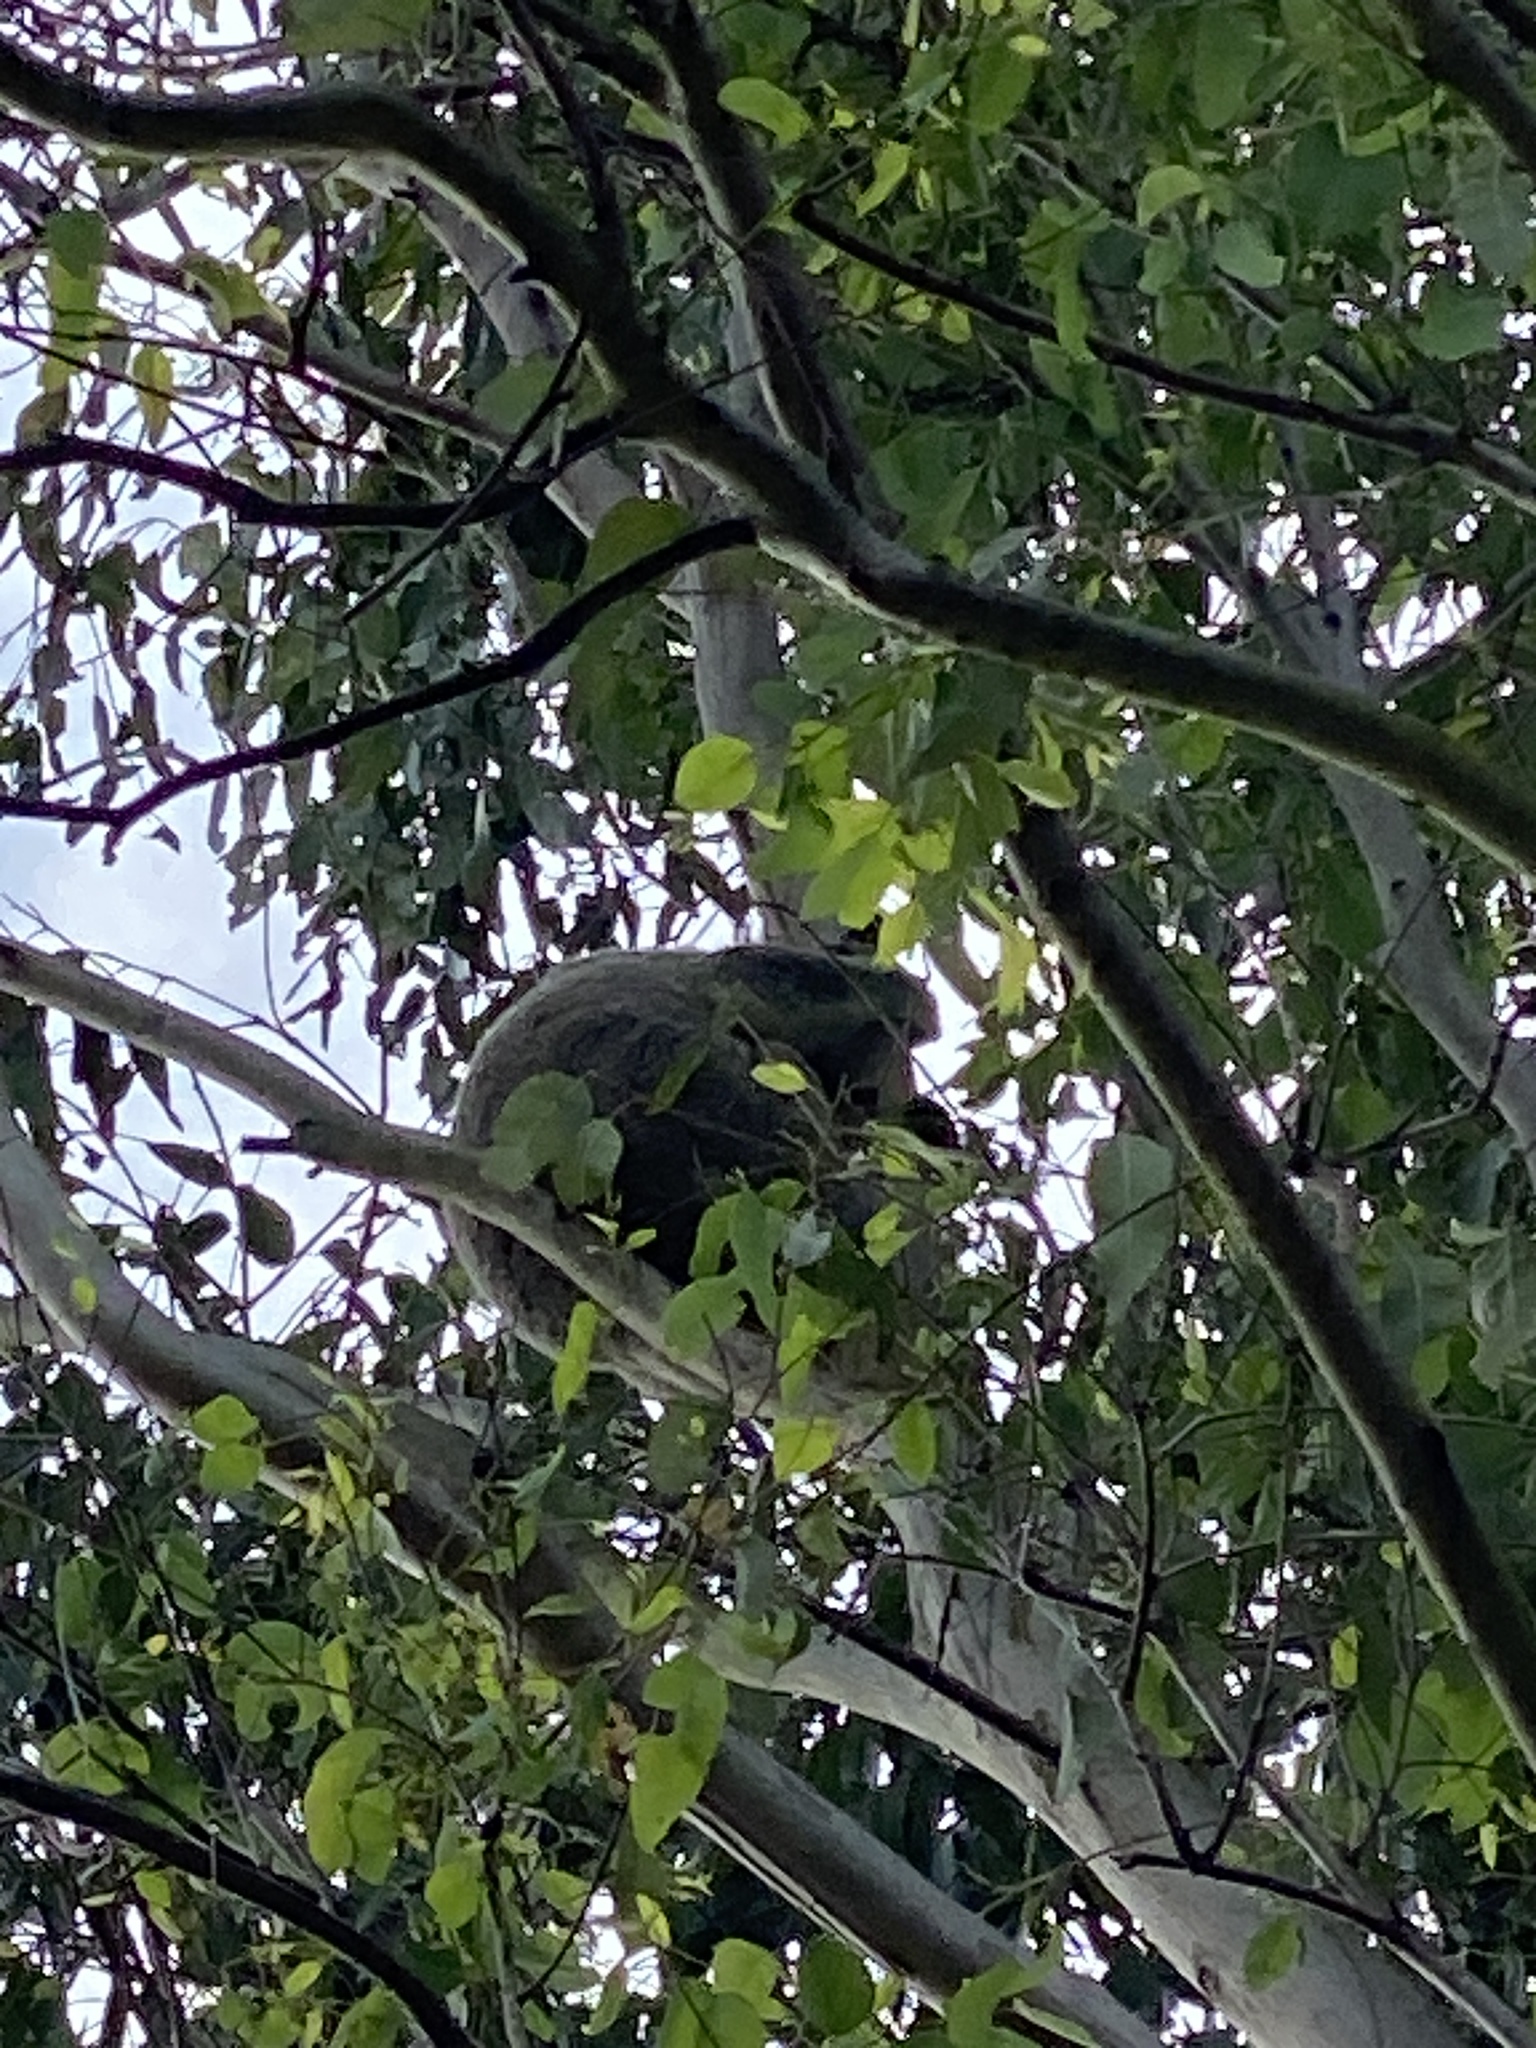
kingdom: Animalia
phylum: Chordata
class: Mammalia
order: Diprotodontia
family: Phascolarctidae
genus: Phascolarctos
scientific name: Phascolarctos cinereus
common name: Koala
